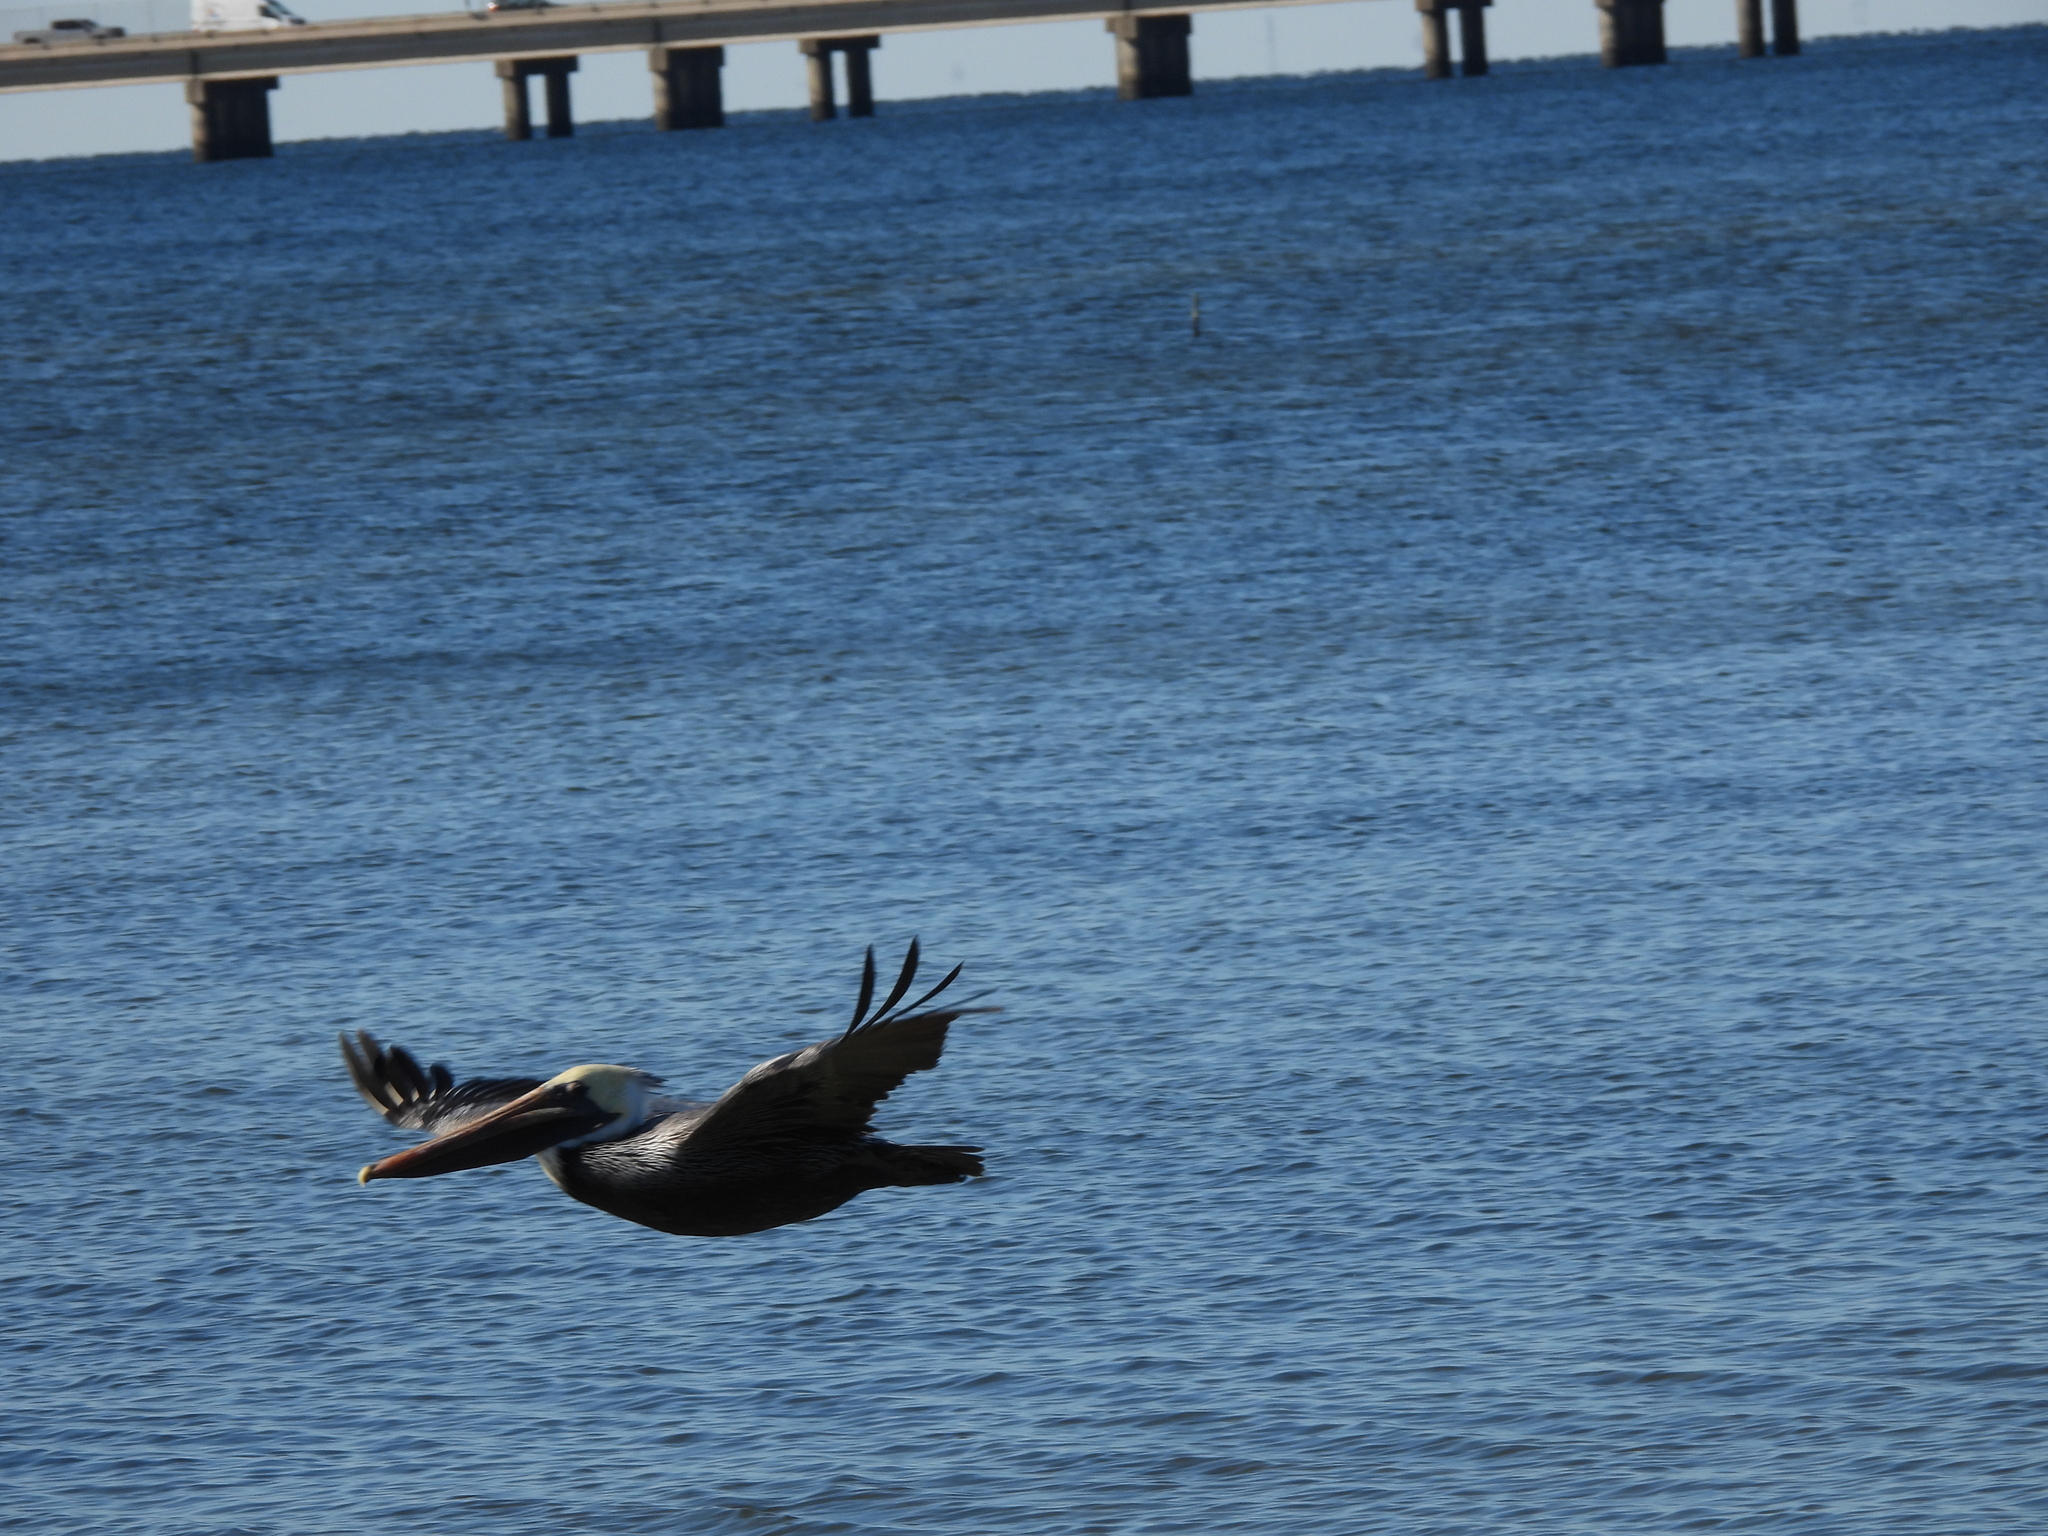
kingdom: Animalia
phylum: Chordata
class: Aves
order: Pelecaniformes
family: Pelecanidae
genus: Pelecanus
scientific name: Pelecanus occidentalis
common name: Brown pelican
